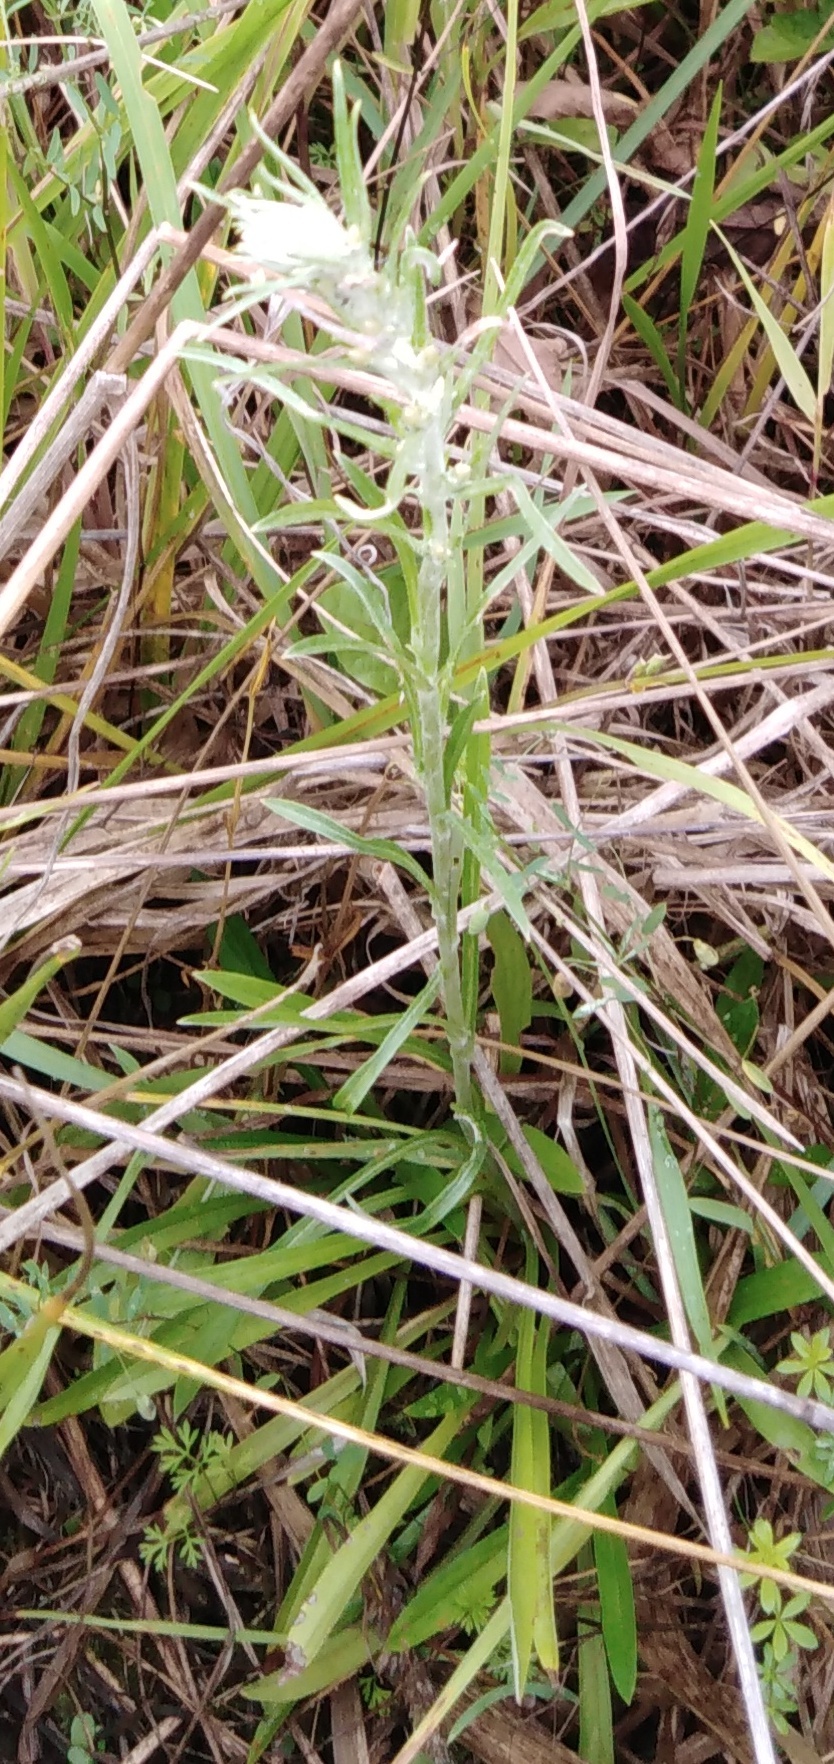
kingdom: Plantae
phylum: Tracheophyta
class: Magnoliopsida
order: Asterales
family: Asteraceae
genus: Omalotheca
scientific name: Omalotheca sylvatica
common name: Heath cudweed
